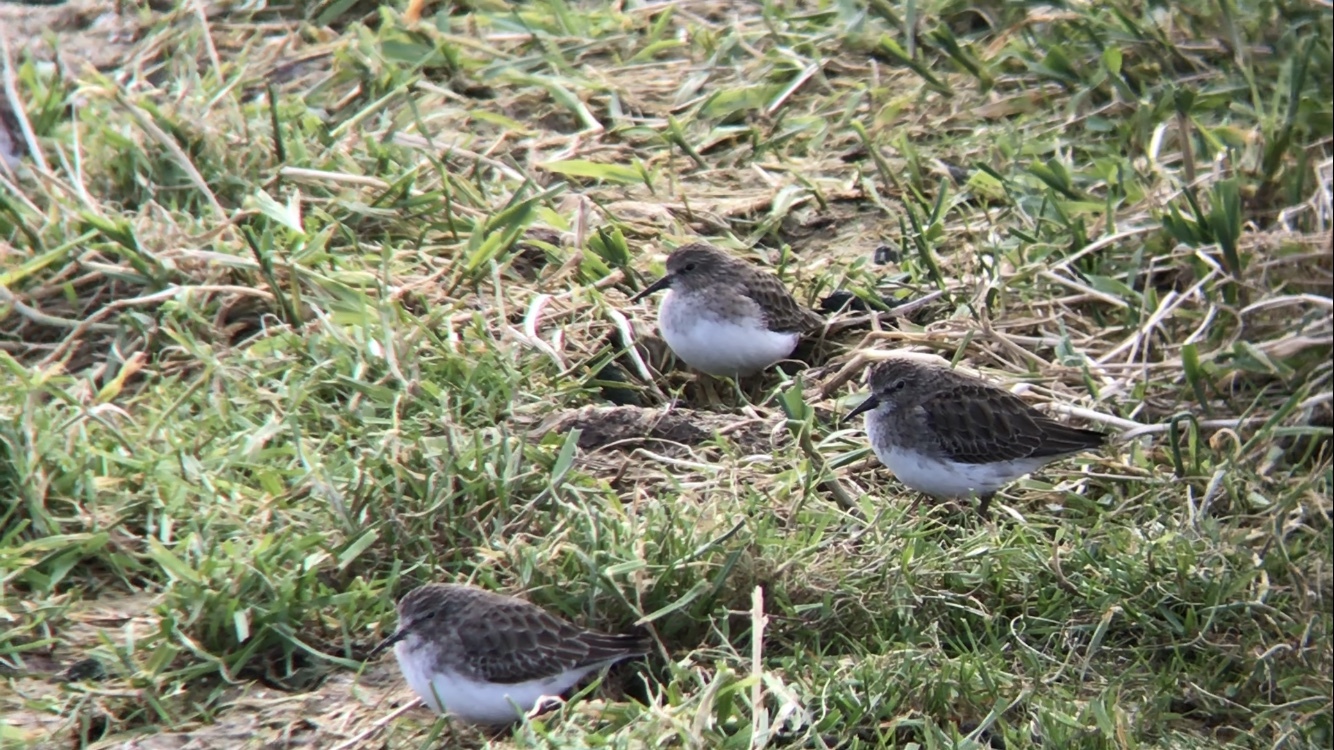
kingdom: Animalia
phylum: Chordata
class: Aves
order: Charadriiformes
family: Scolopacidae
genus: Calidris
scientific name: Calidris minutilla
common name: Least sandpiper
